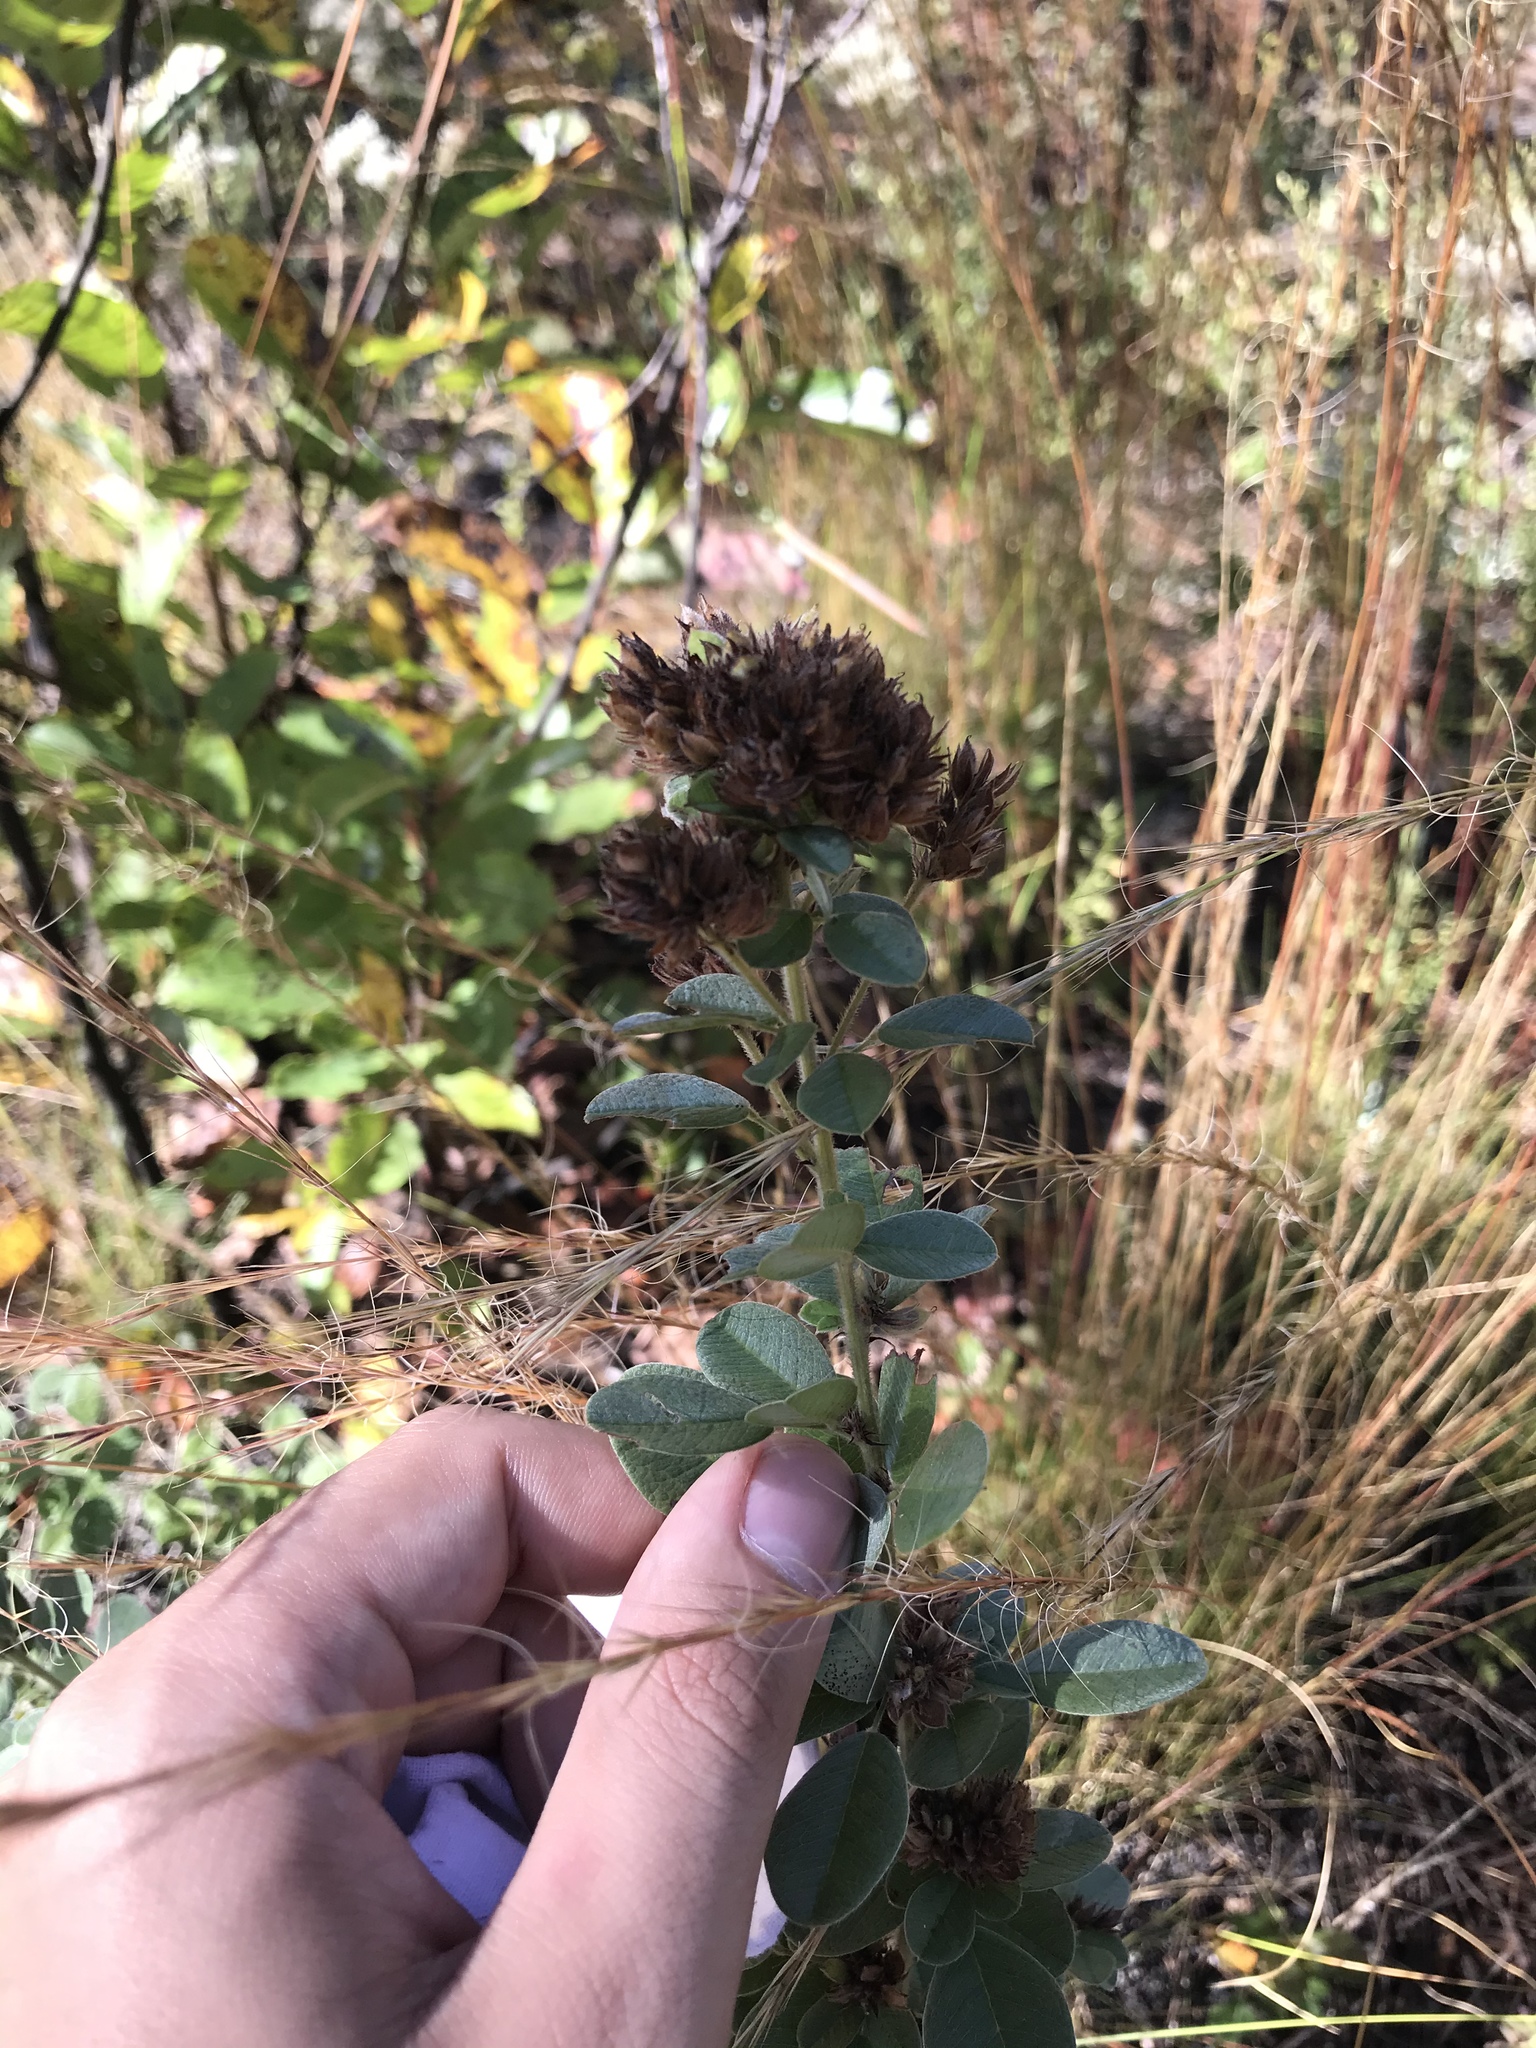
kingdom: Plantae
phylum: Tracheophyta
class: Magnoliopsida
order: Fabales
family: Fabaceae
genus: Lespedeza
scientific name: Lespedeza hirta
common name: Hairy lespedeza
